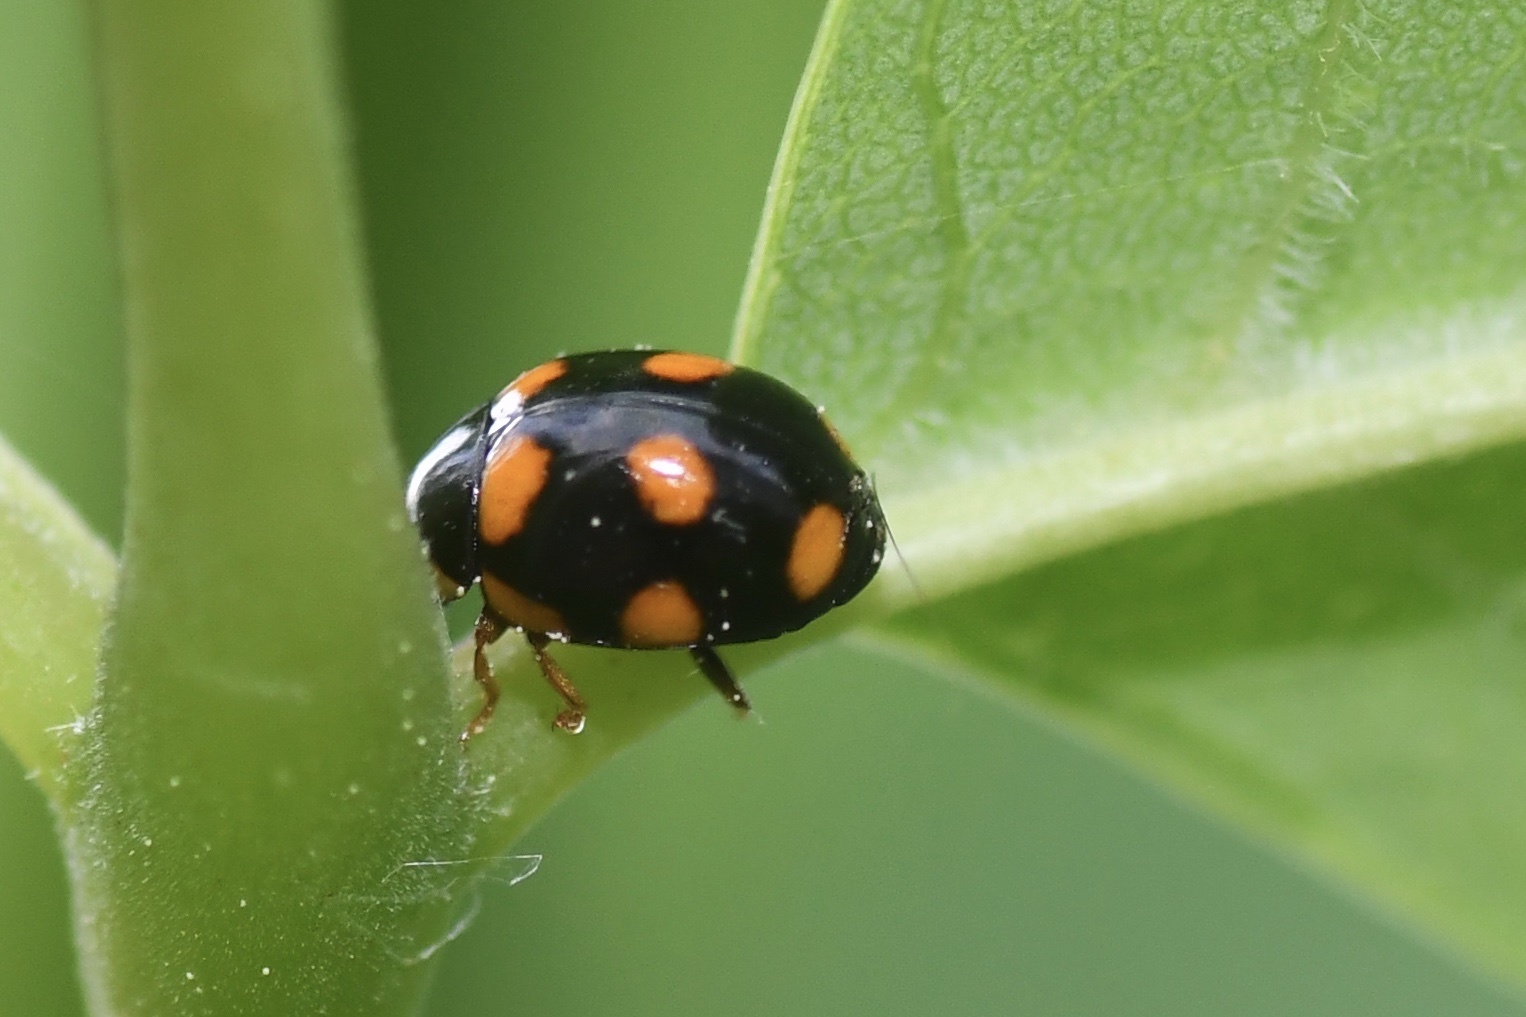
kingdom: Animalia
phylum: Arthropoda
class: Insecta
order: Coleoptera
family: Coccinellidae
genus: Brachiacantha
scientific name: Brachiacantha ursina
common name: Ursine spurleg lady beetle
